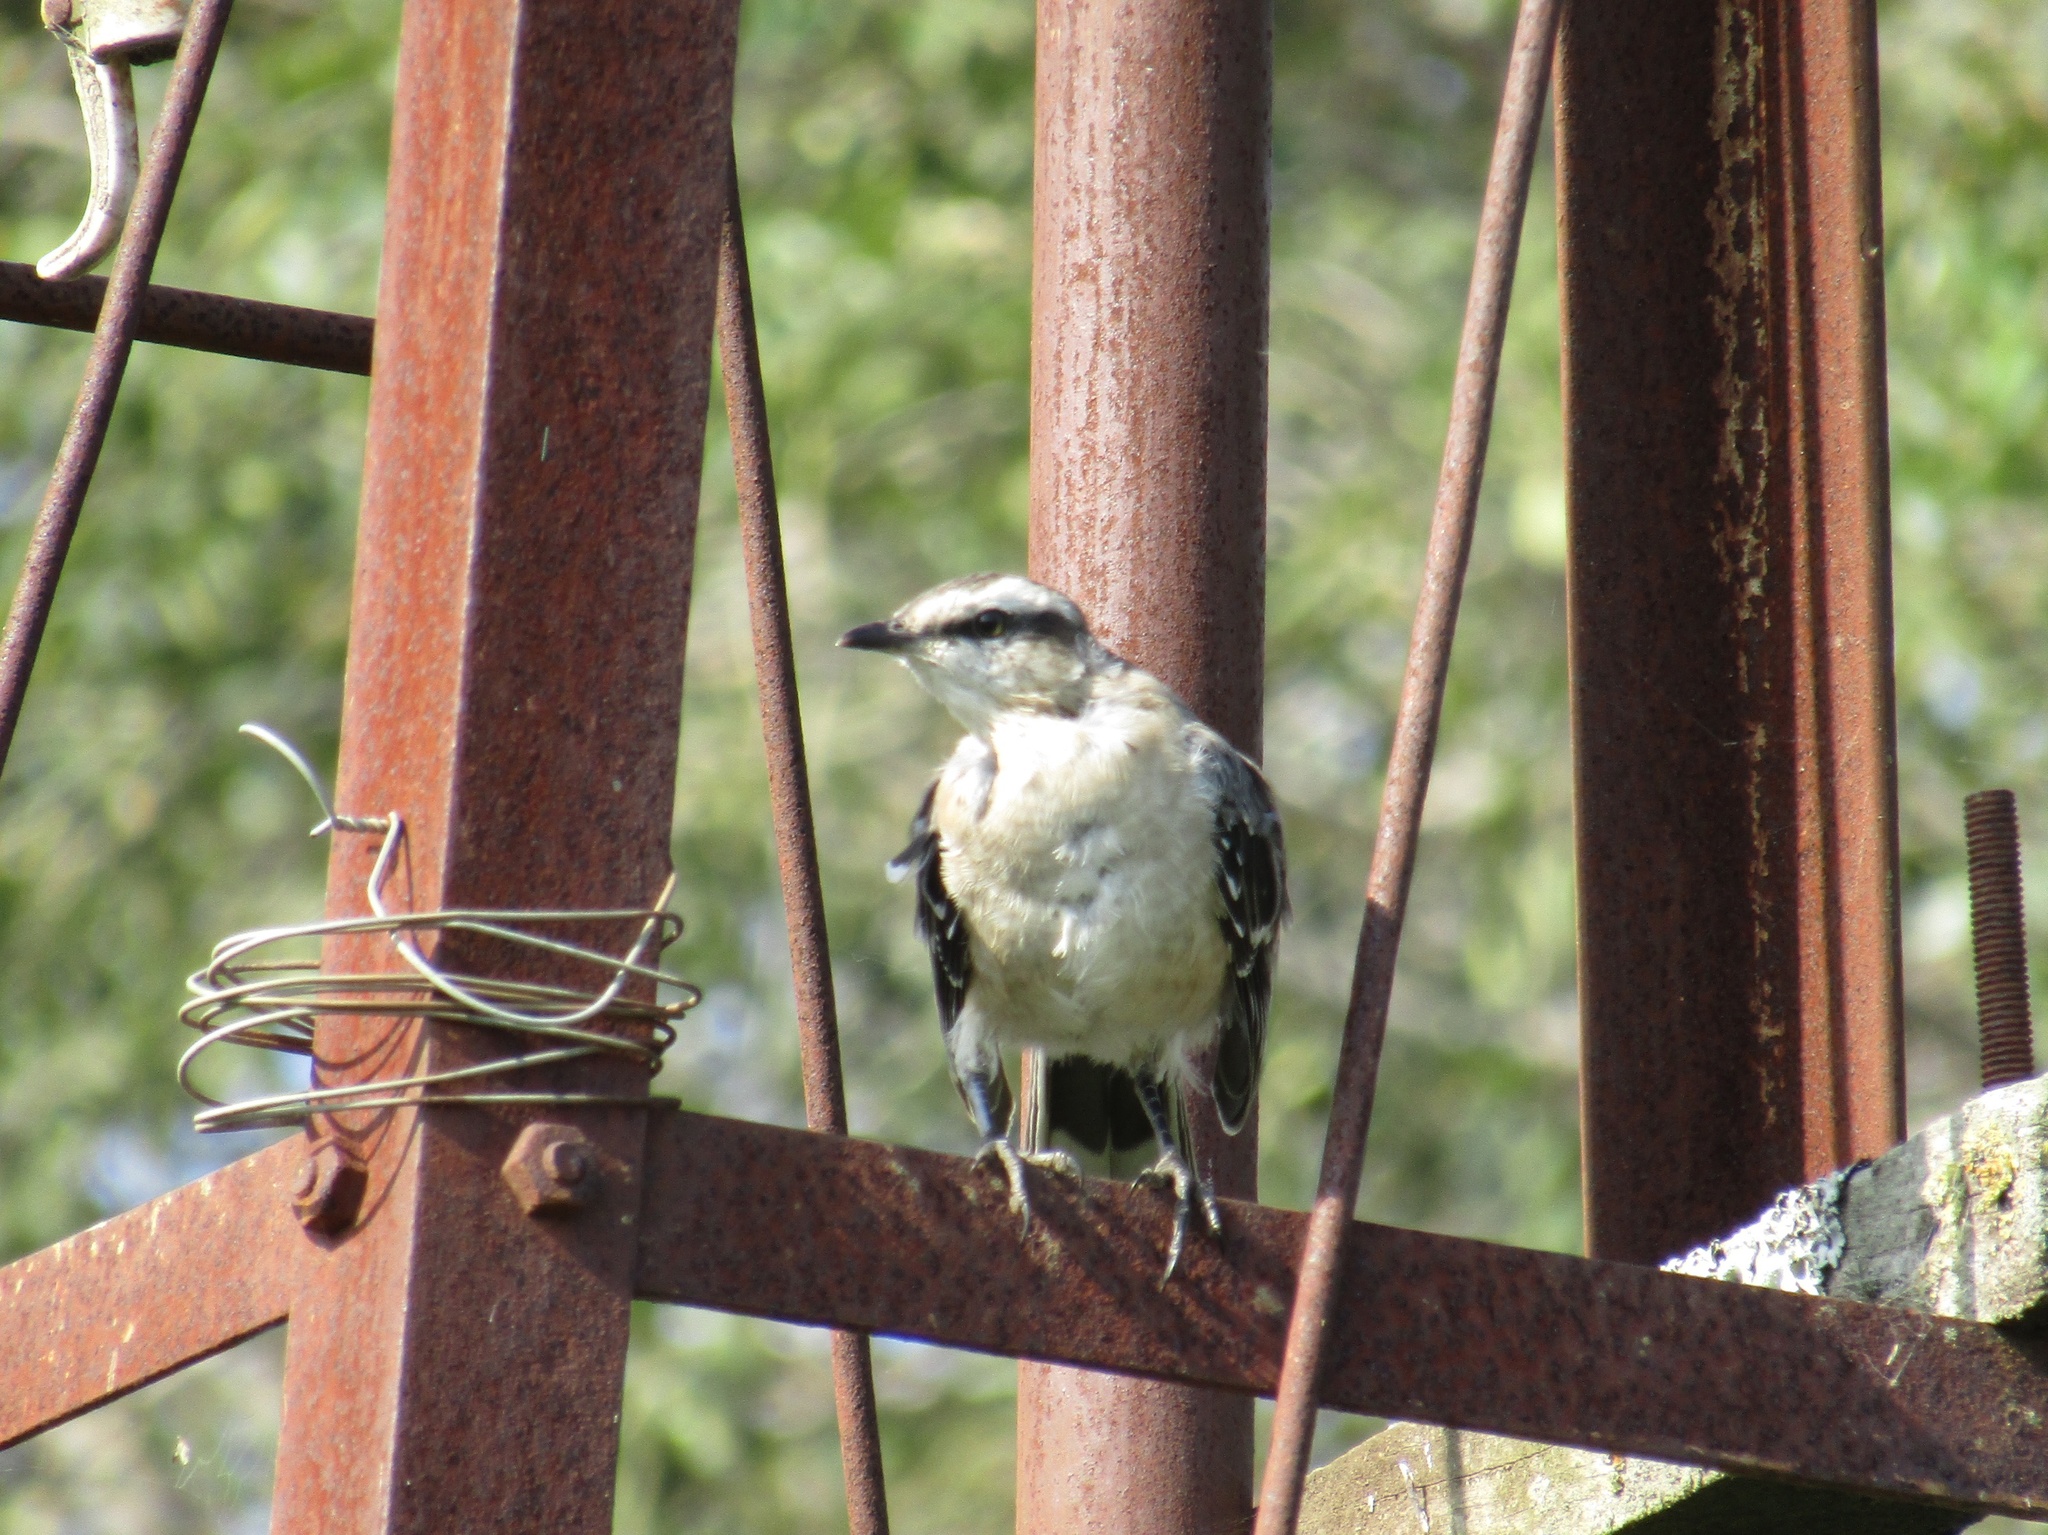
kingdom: Animalia
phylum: Chordata
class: Aves
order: Passeriformes
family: Mimidae
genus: Mimus
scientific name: Mimus saturninus
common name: Chalk-browed mockingbird
